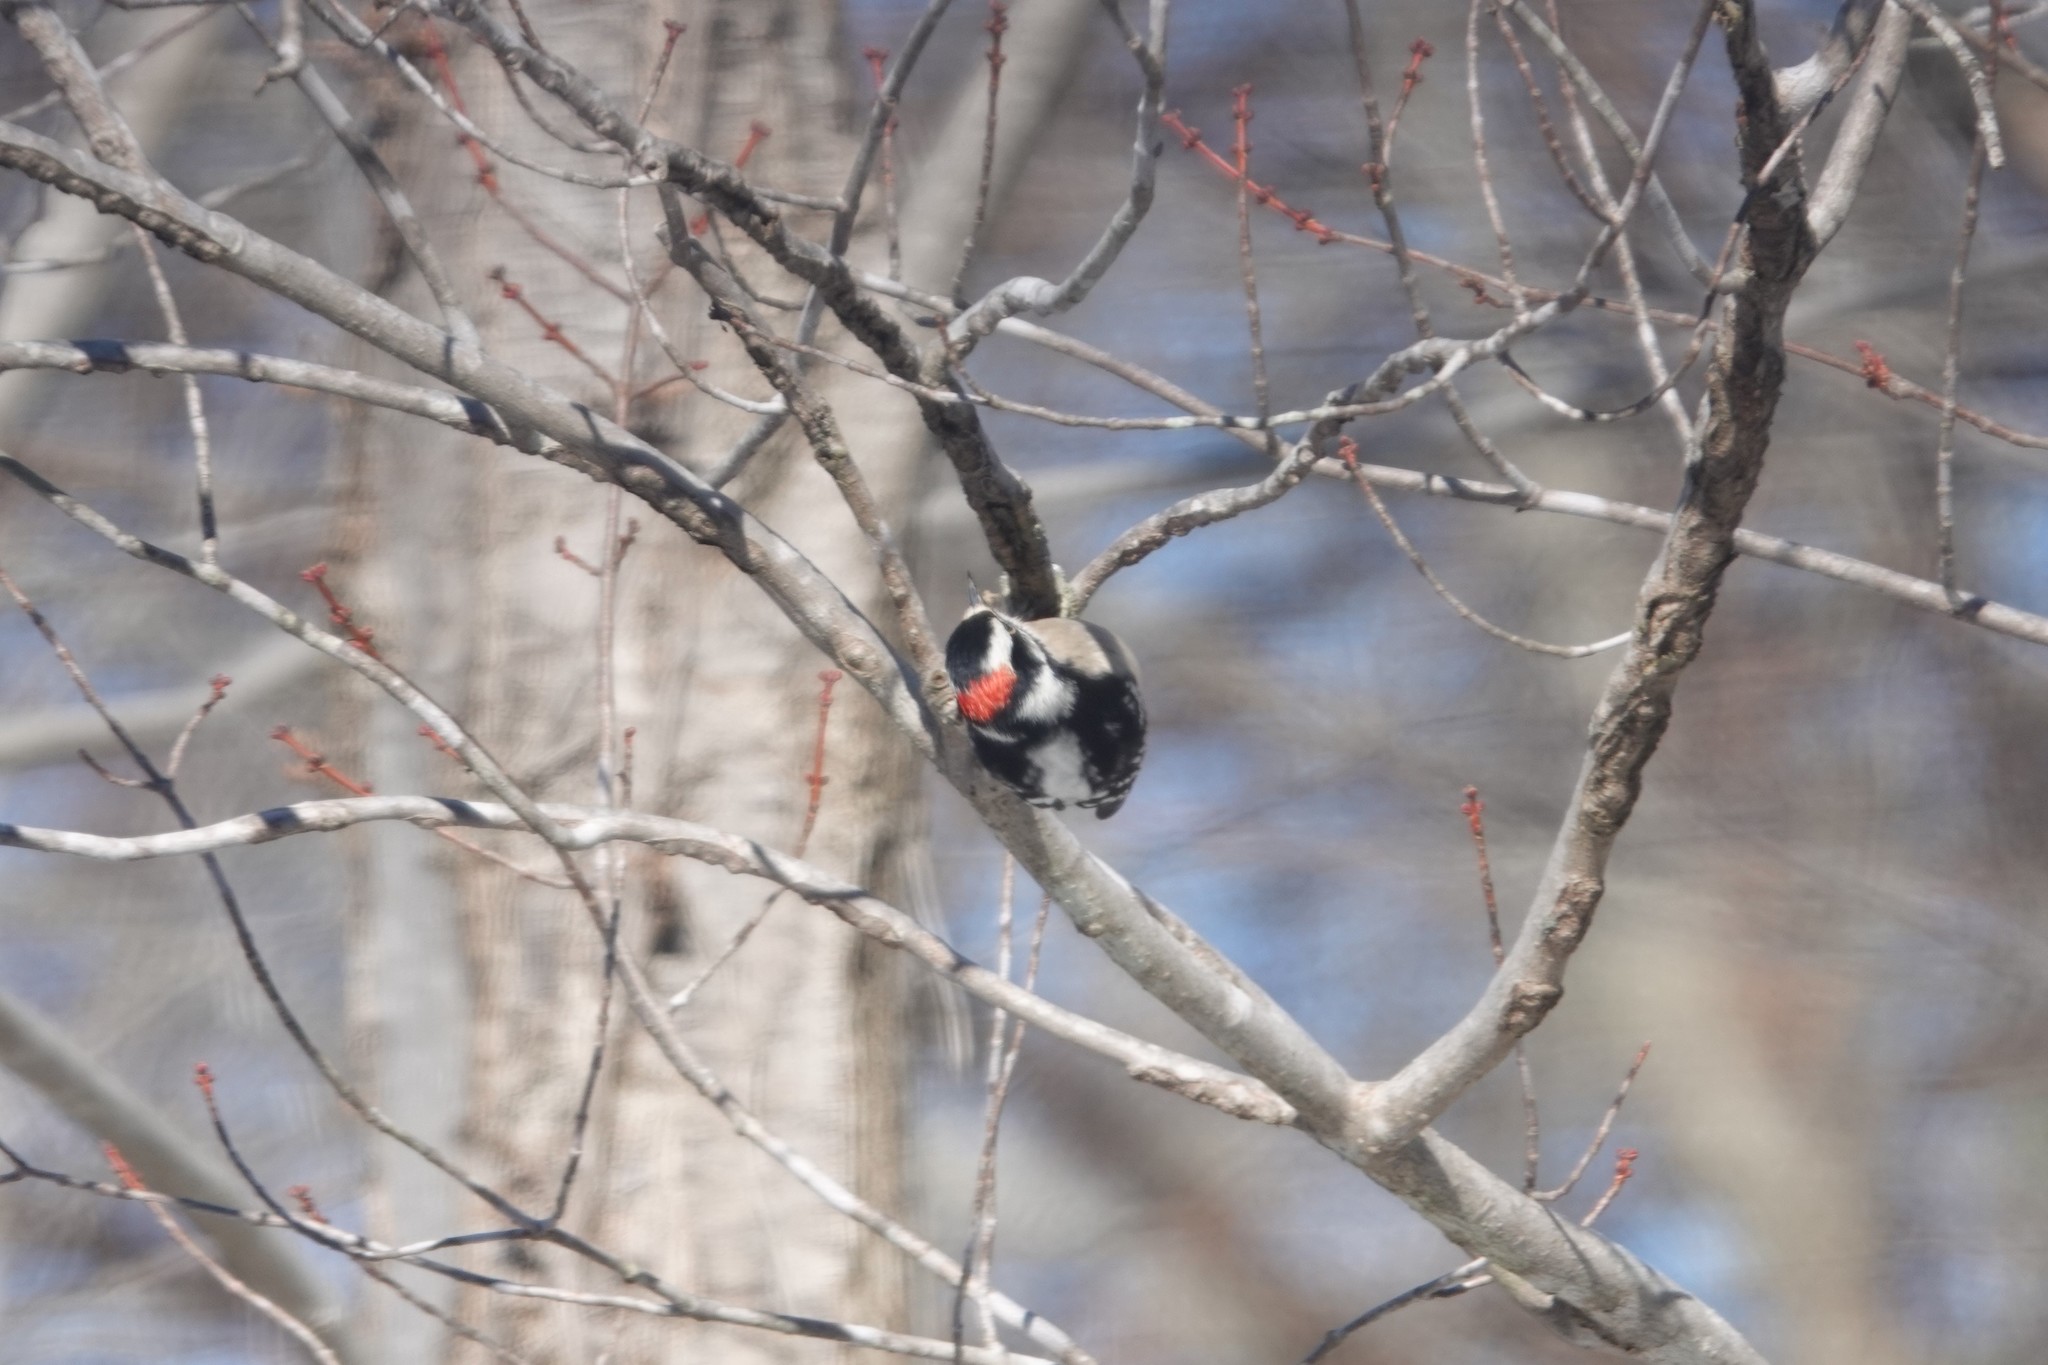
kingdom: Animalia
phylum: Chordata
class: Aves
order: Piciformes
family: Picidae
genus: Dryobates
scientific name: Dryobates pubescens
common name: Downy woodpecker
